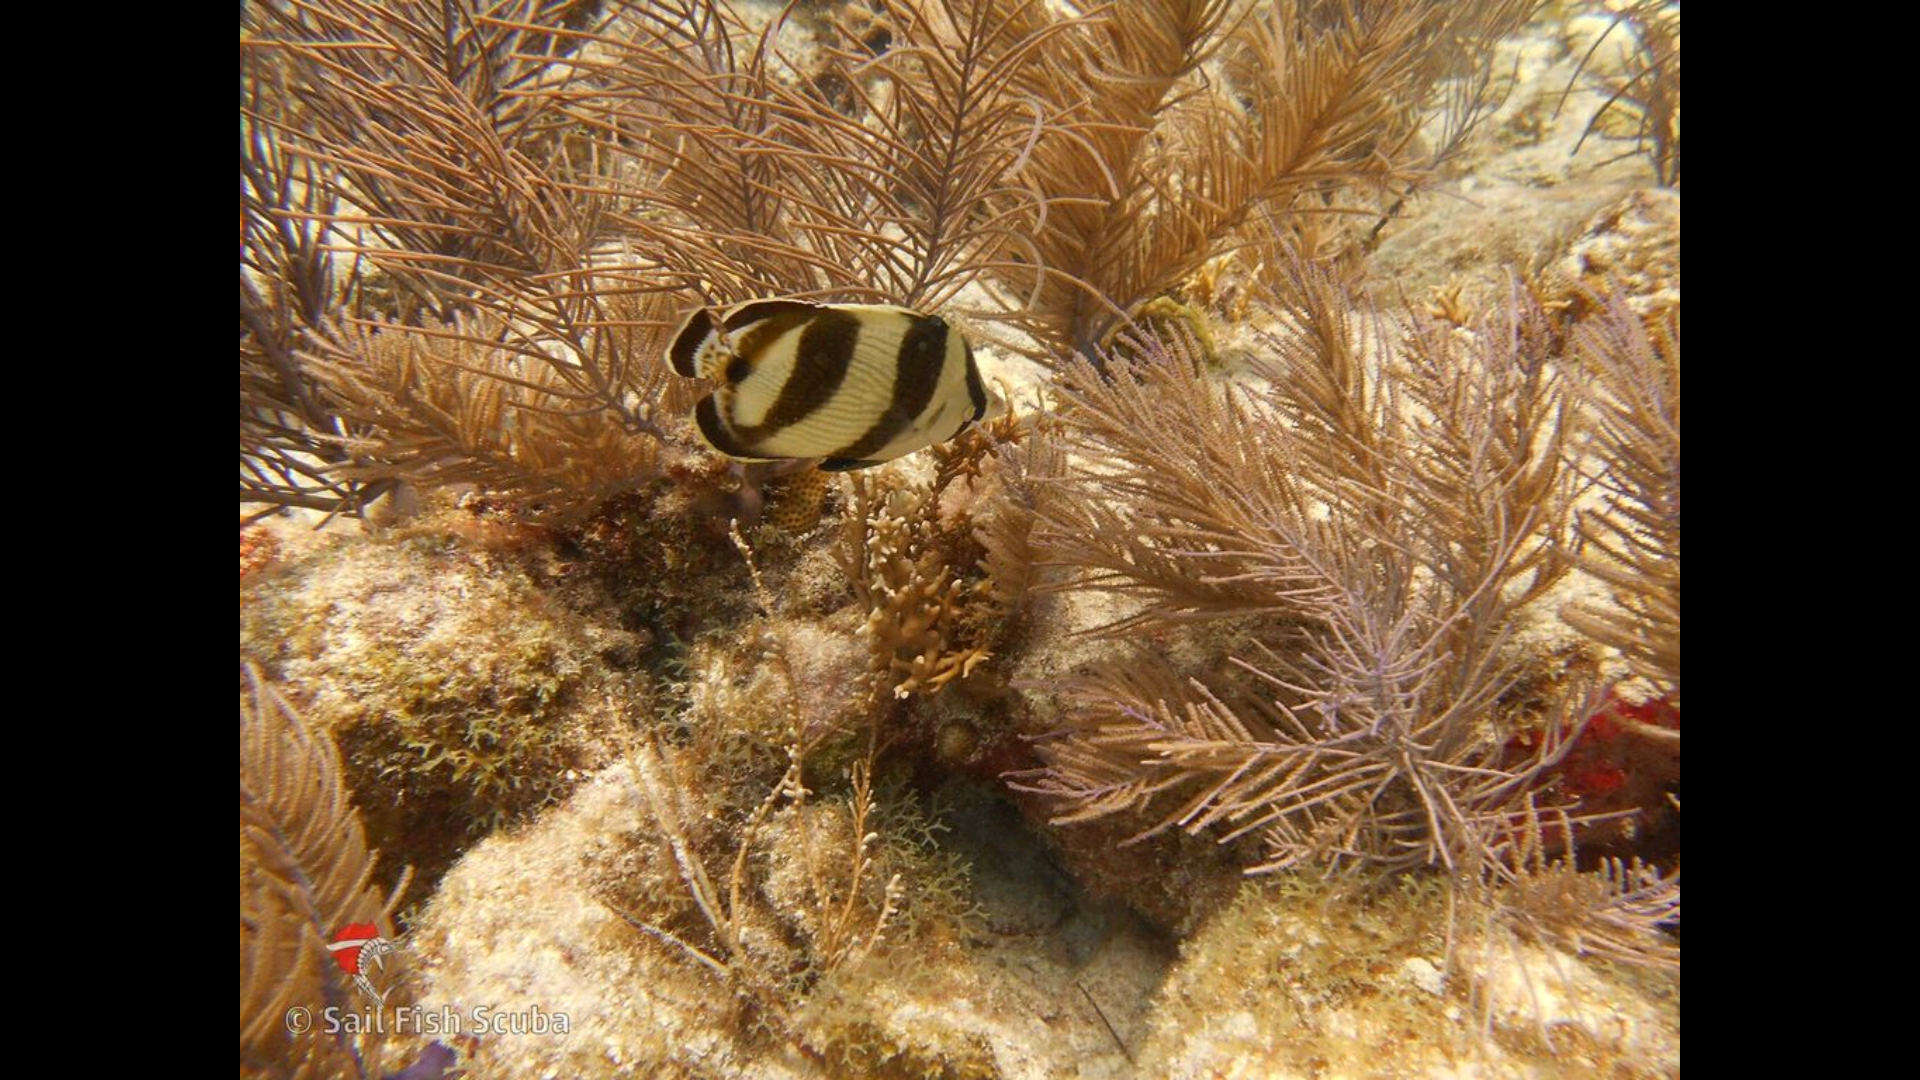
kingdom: Animalia
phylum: Chordata
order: Perciformes
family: Chaetodontidae
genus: Chaetodon
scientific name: Chaetodon striatus
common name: Banded butterflyfish
